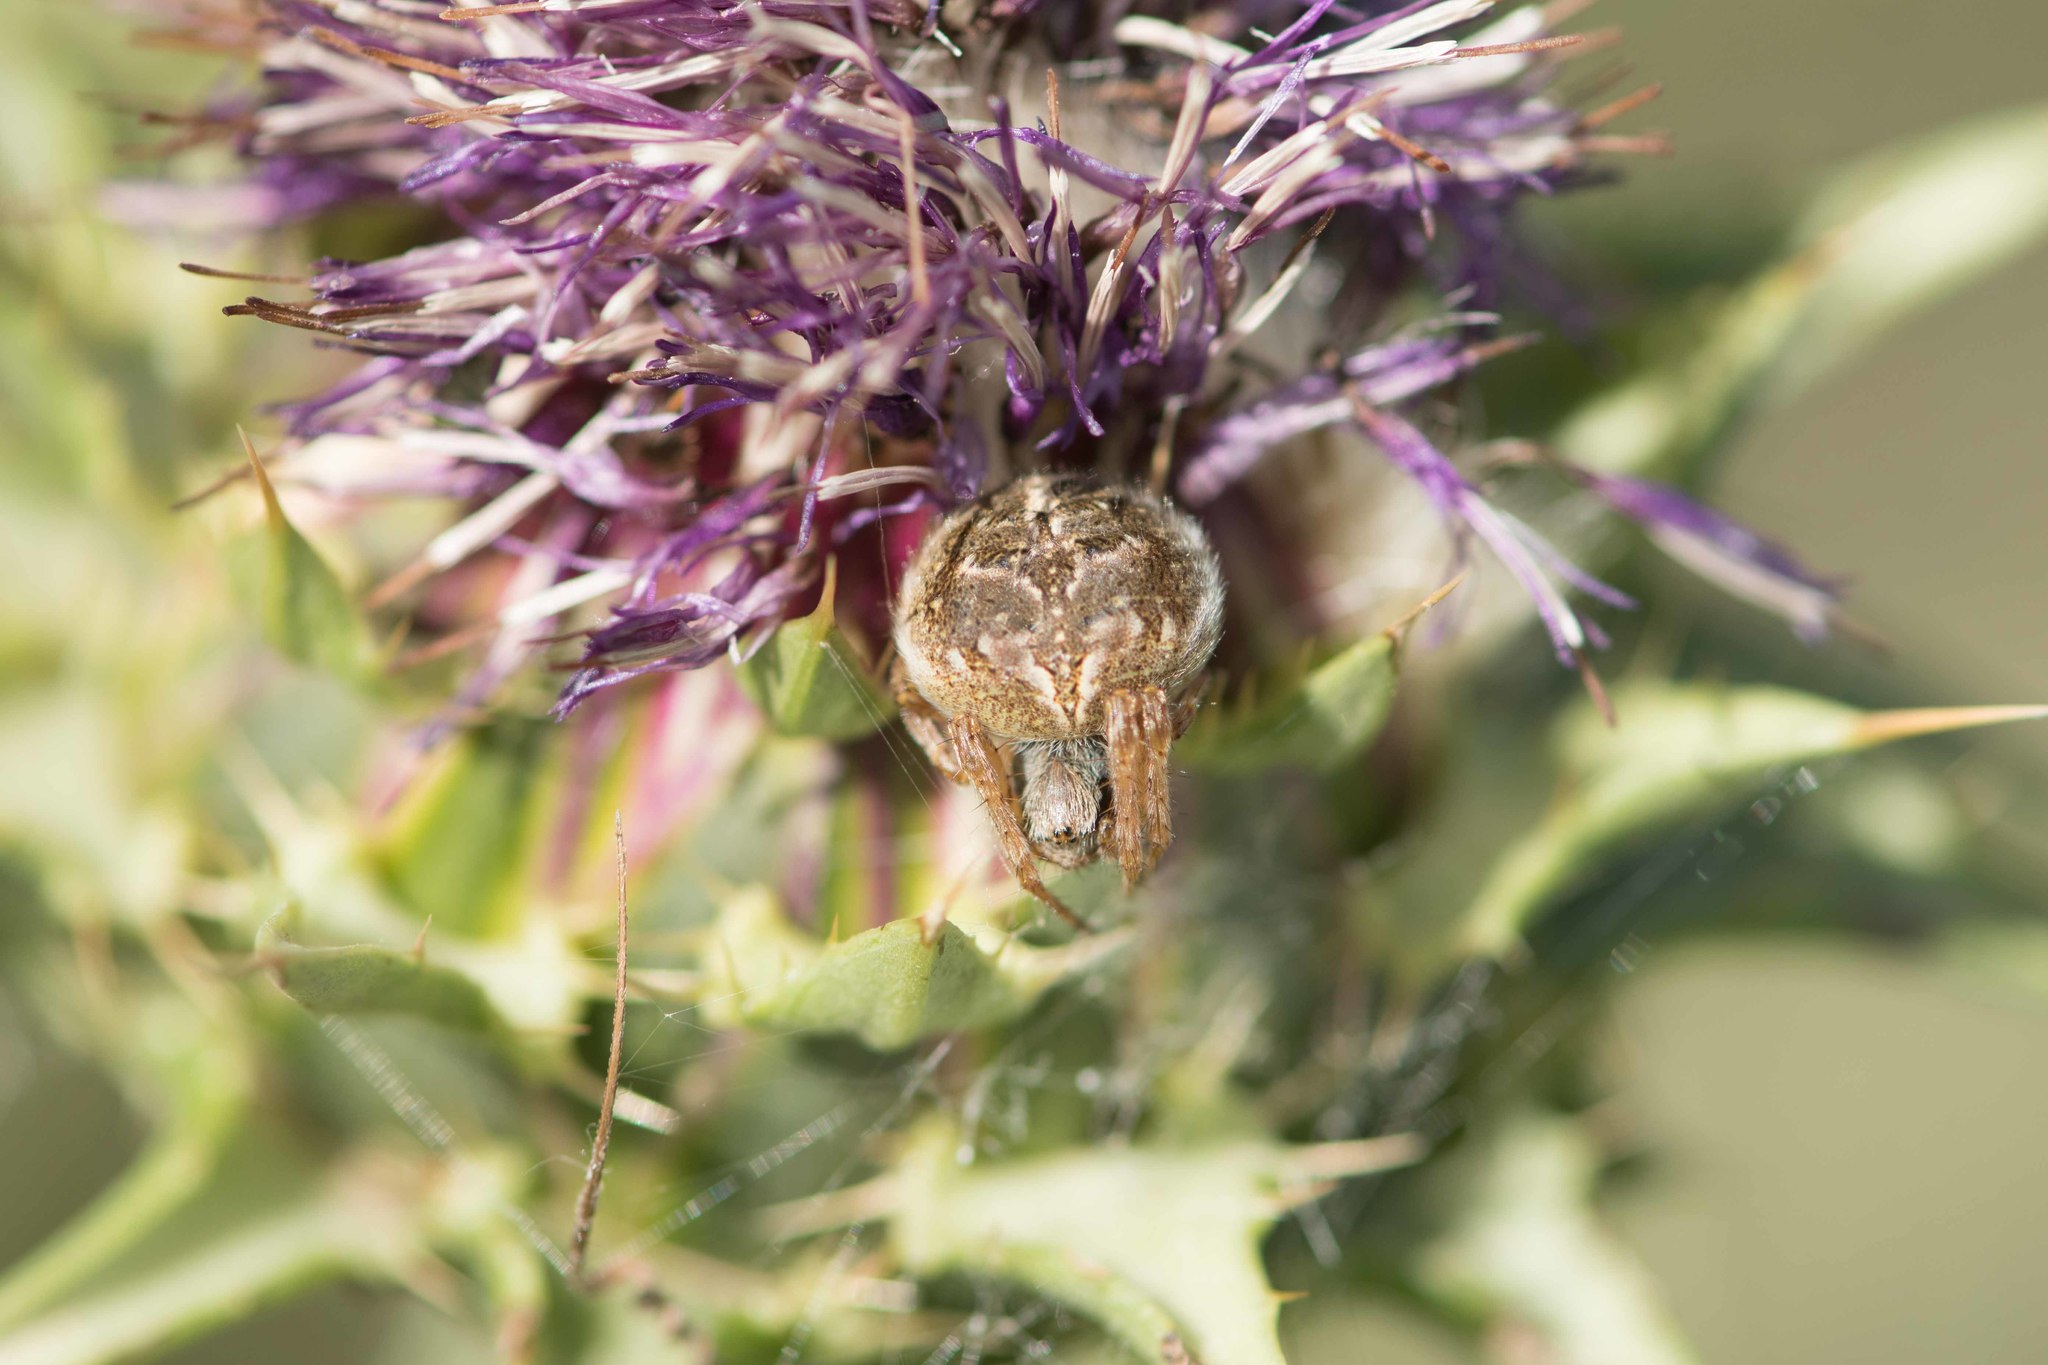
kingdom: Animalia
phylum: Arthropoda
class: Arachnida
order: Araneae
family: Araneidae
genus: Agalenatea
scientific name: Agalenatea redii
